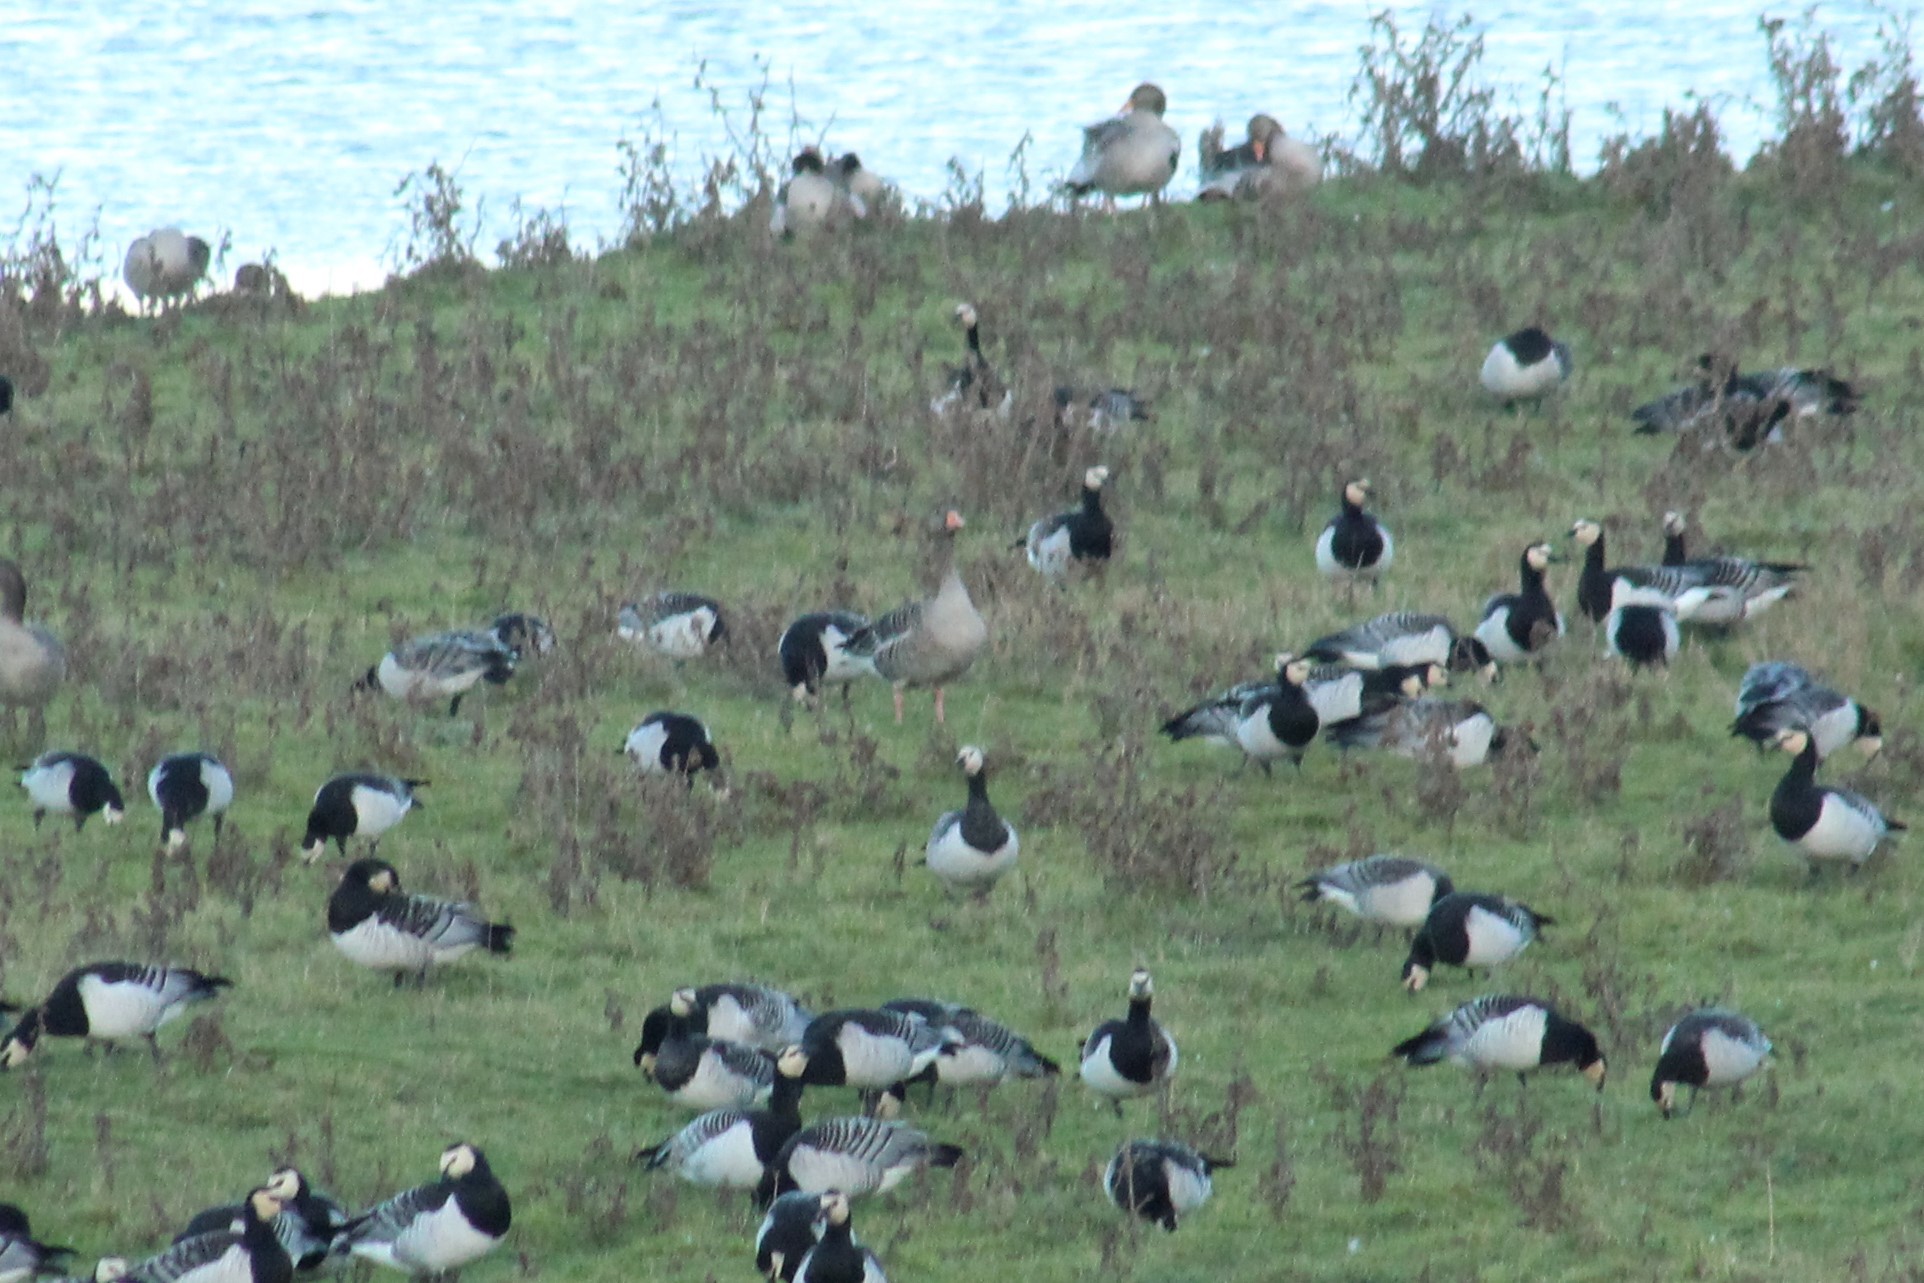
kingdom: Animalia
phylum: Chordata
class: Aves
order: Anseriformes
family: Anatidae
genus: Anser
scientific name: Anser anser
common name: Greylag goose
